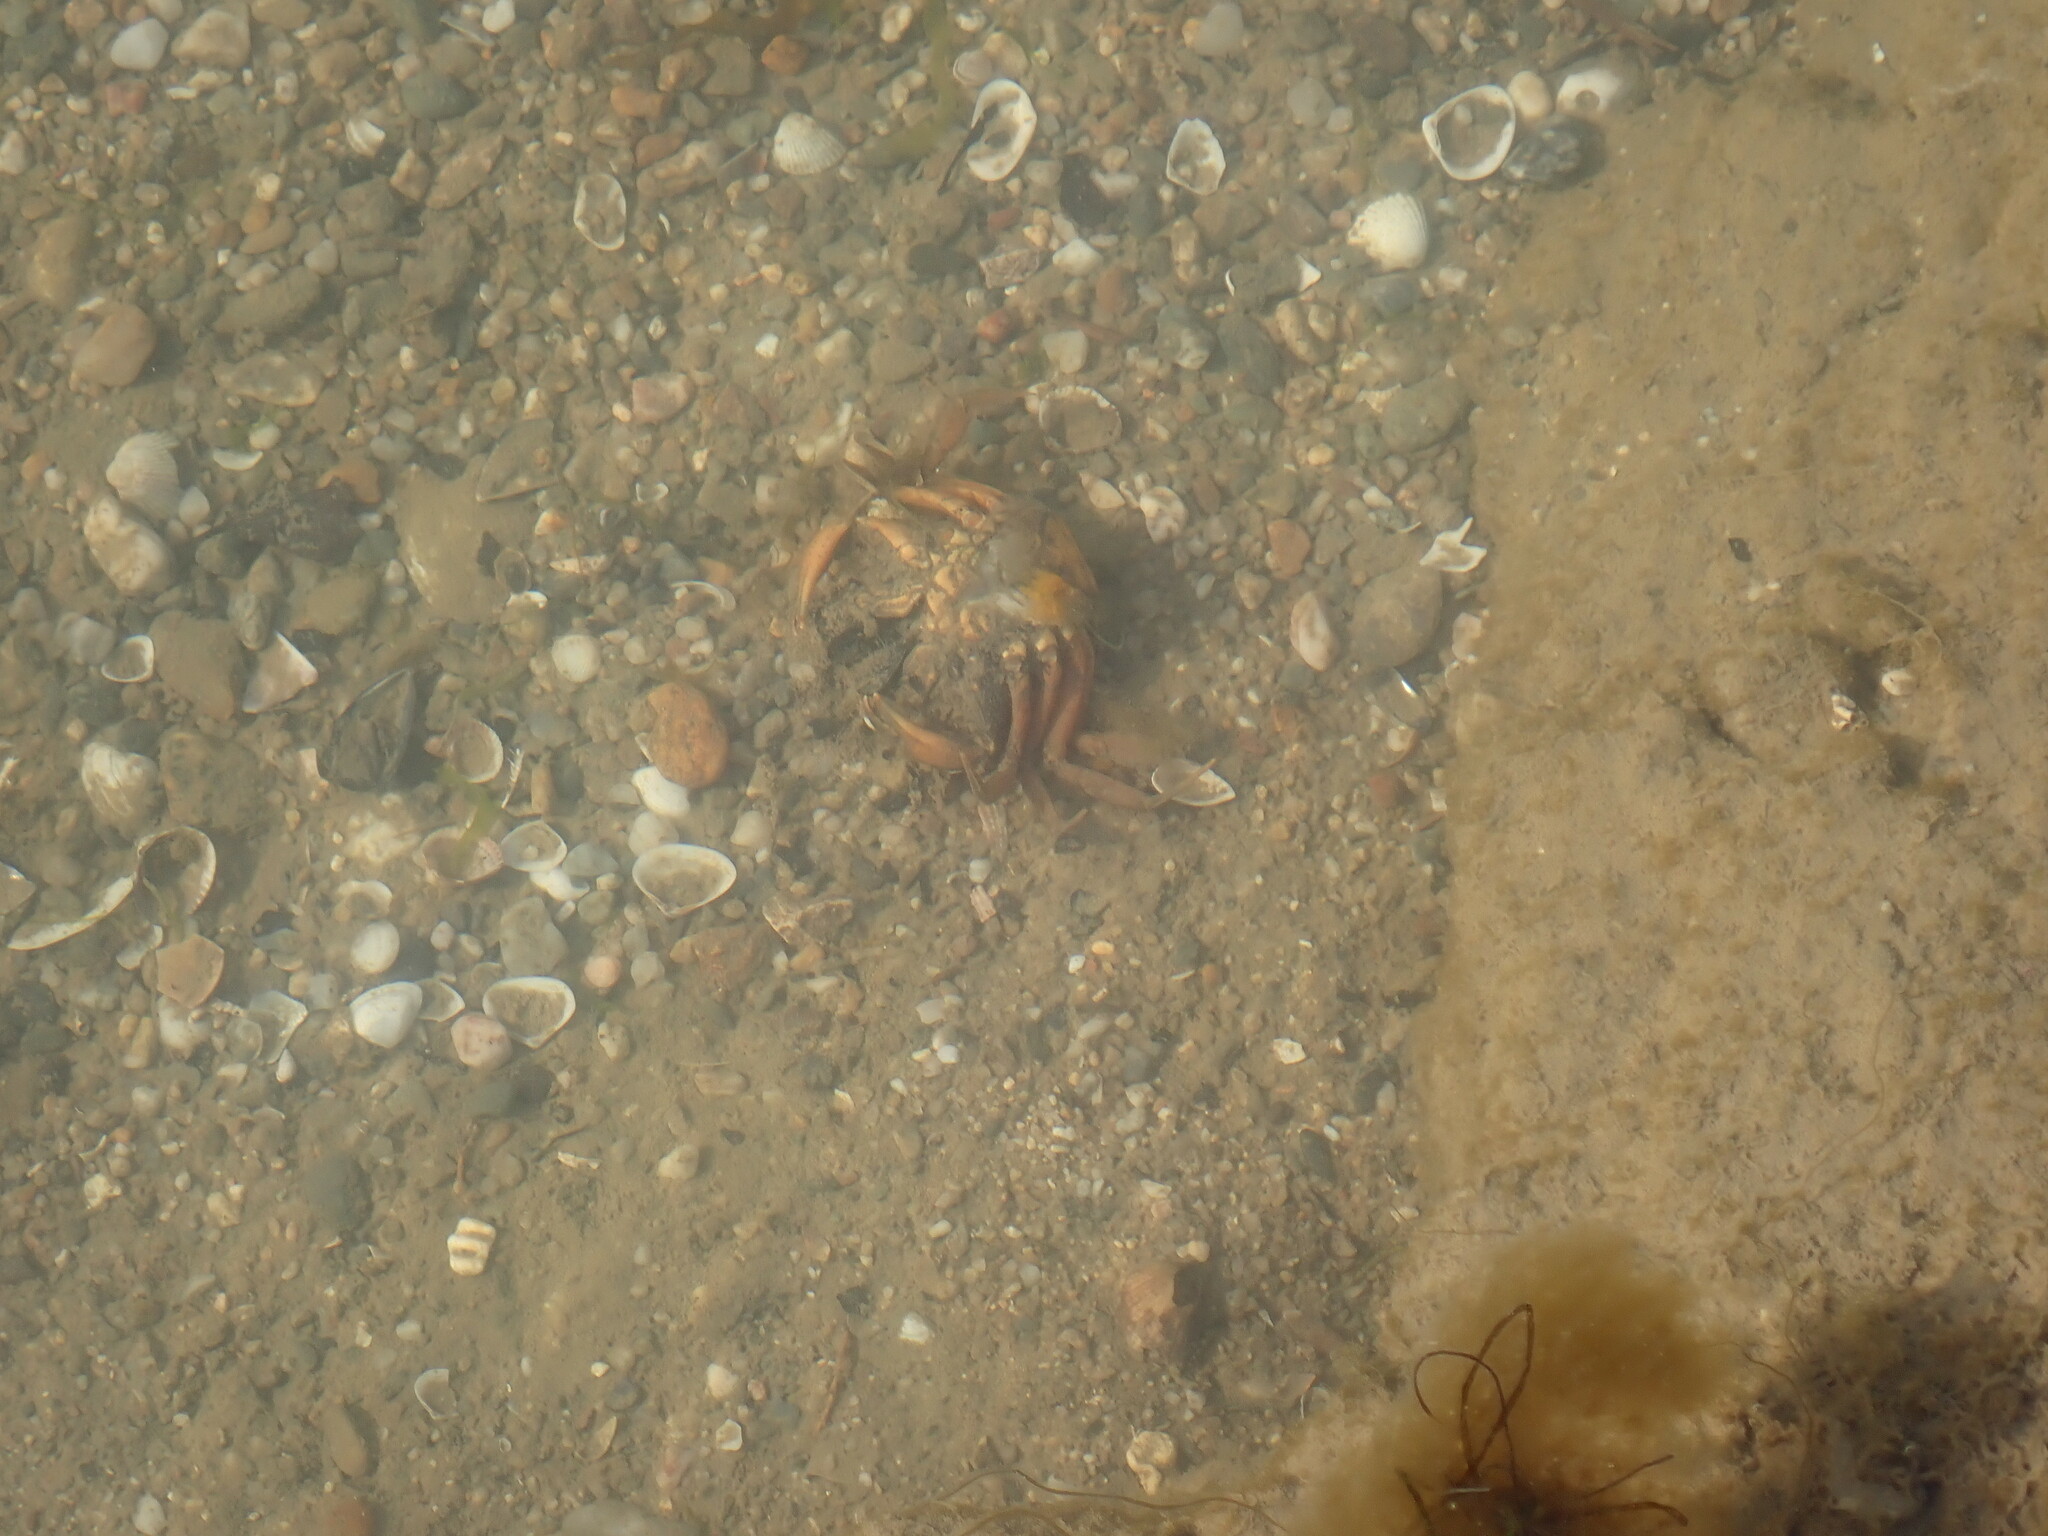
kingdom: Animalia
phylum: Arthropoda
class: Malacostraca
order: Decapoda
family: Carcinidae
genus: Carcinus
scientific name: Carcinus aestuarii
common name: Mediterranean green crab
